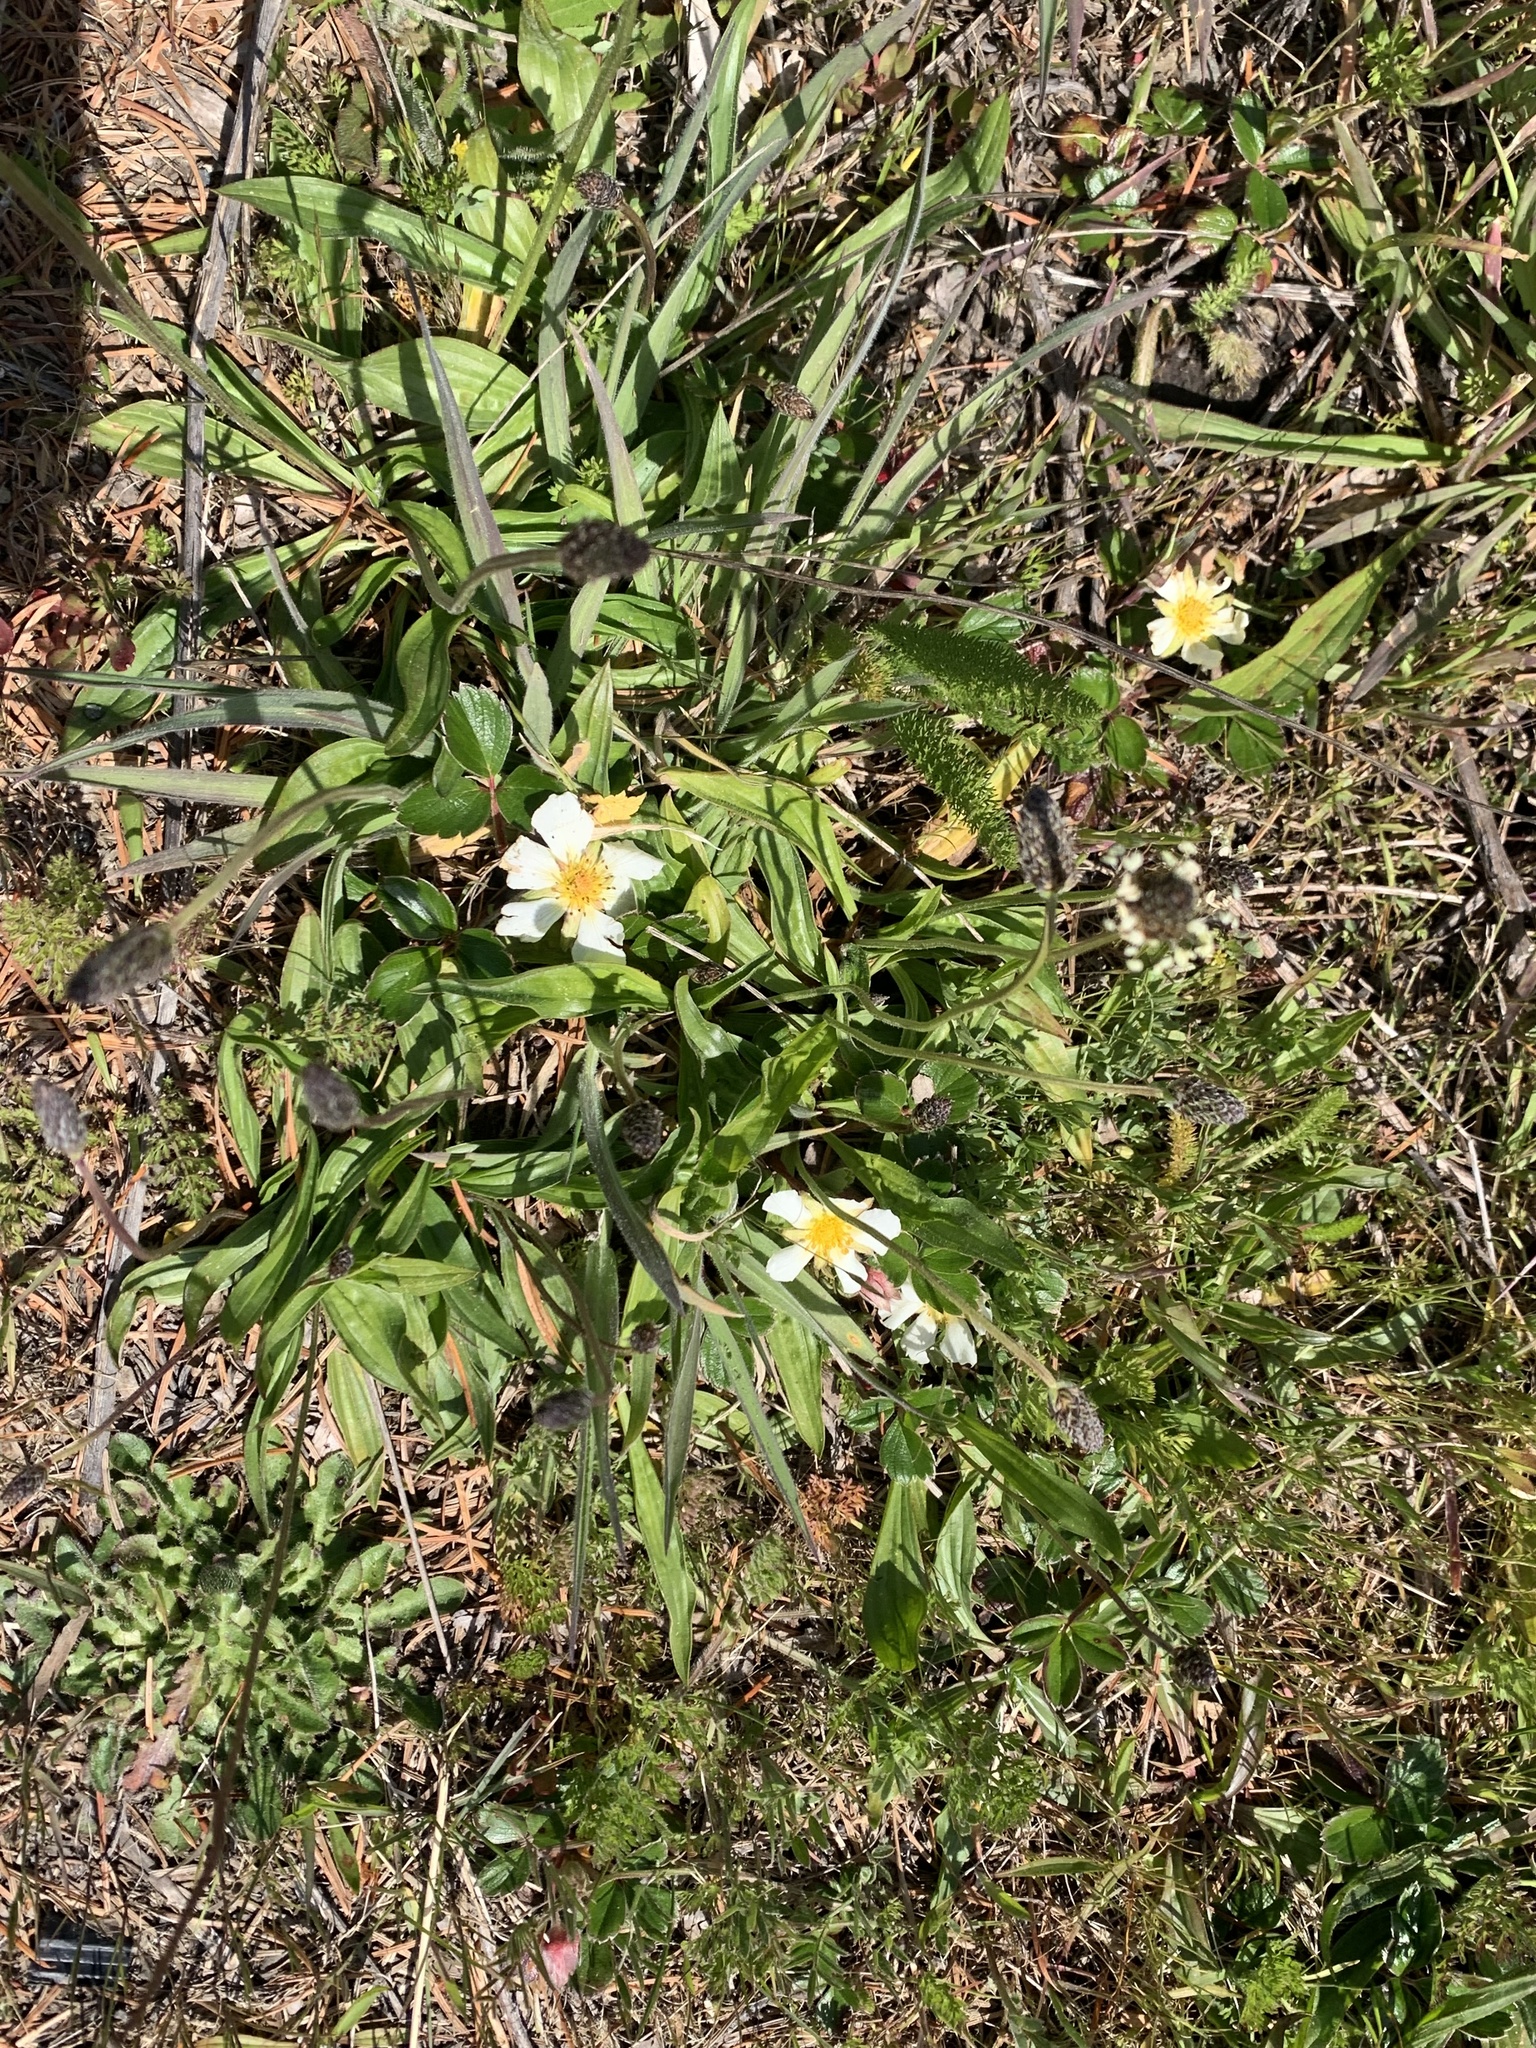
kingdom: Plantae
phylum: Tracheophyta
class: Magnoliopsida
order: Rosales
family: Rosaceae
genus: Fragaria
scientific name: Fragaria chiloensis
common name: Beach strawberry
